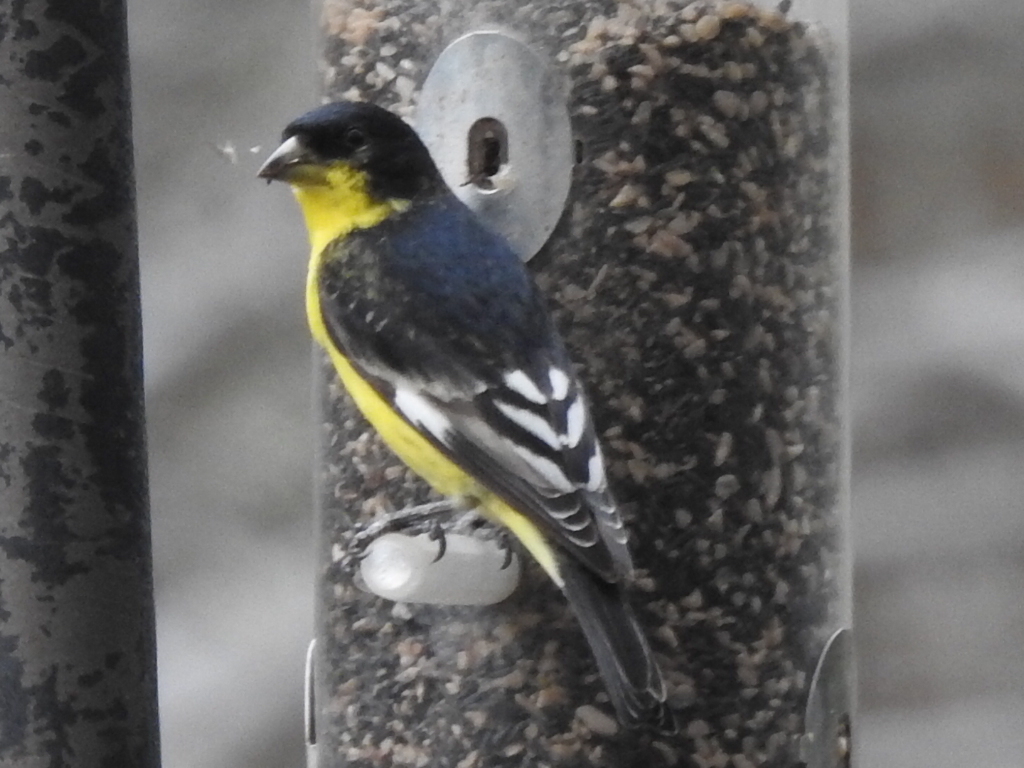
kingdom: Animalia
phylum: Chordata
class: Aves
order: Passeriformes
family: Fringillidae
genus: Spinus
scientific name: Spinus psaltria
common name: Lesser goldfinch
